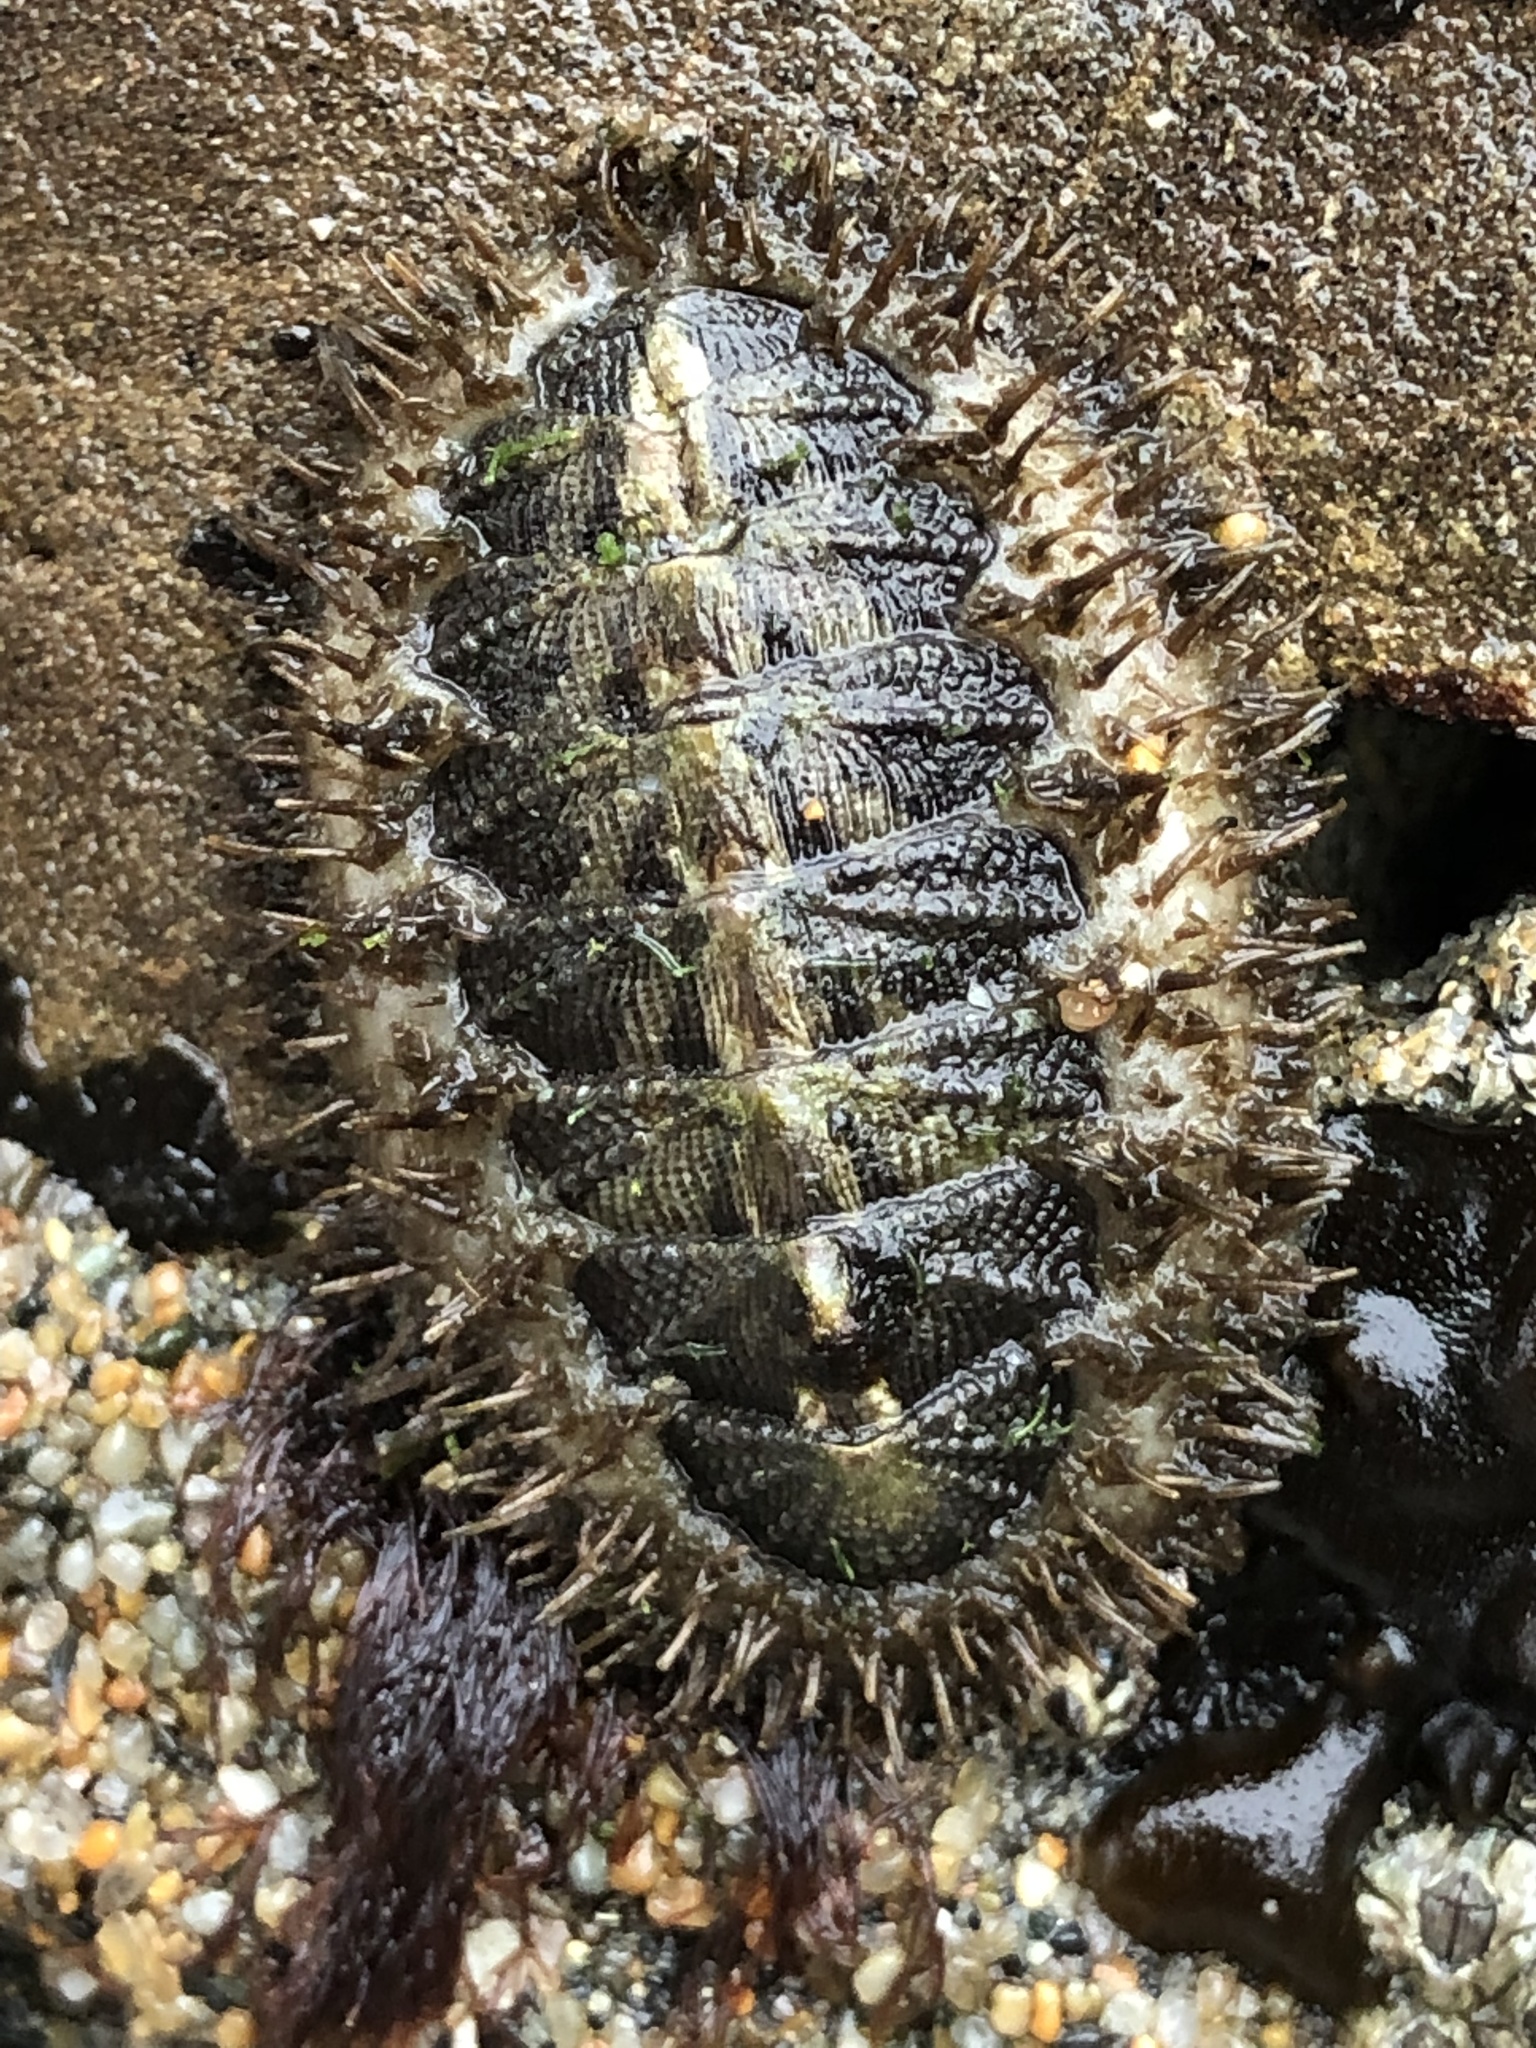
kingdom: Animalia
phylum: Mollusca
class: Polyplacophora
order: Chitonida
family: Mopaliidae
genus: Mopalia
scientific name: Mopalia muscosa
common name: Mossy chiton
